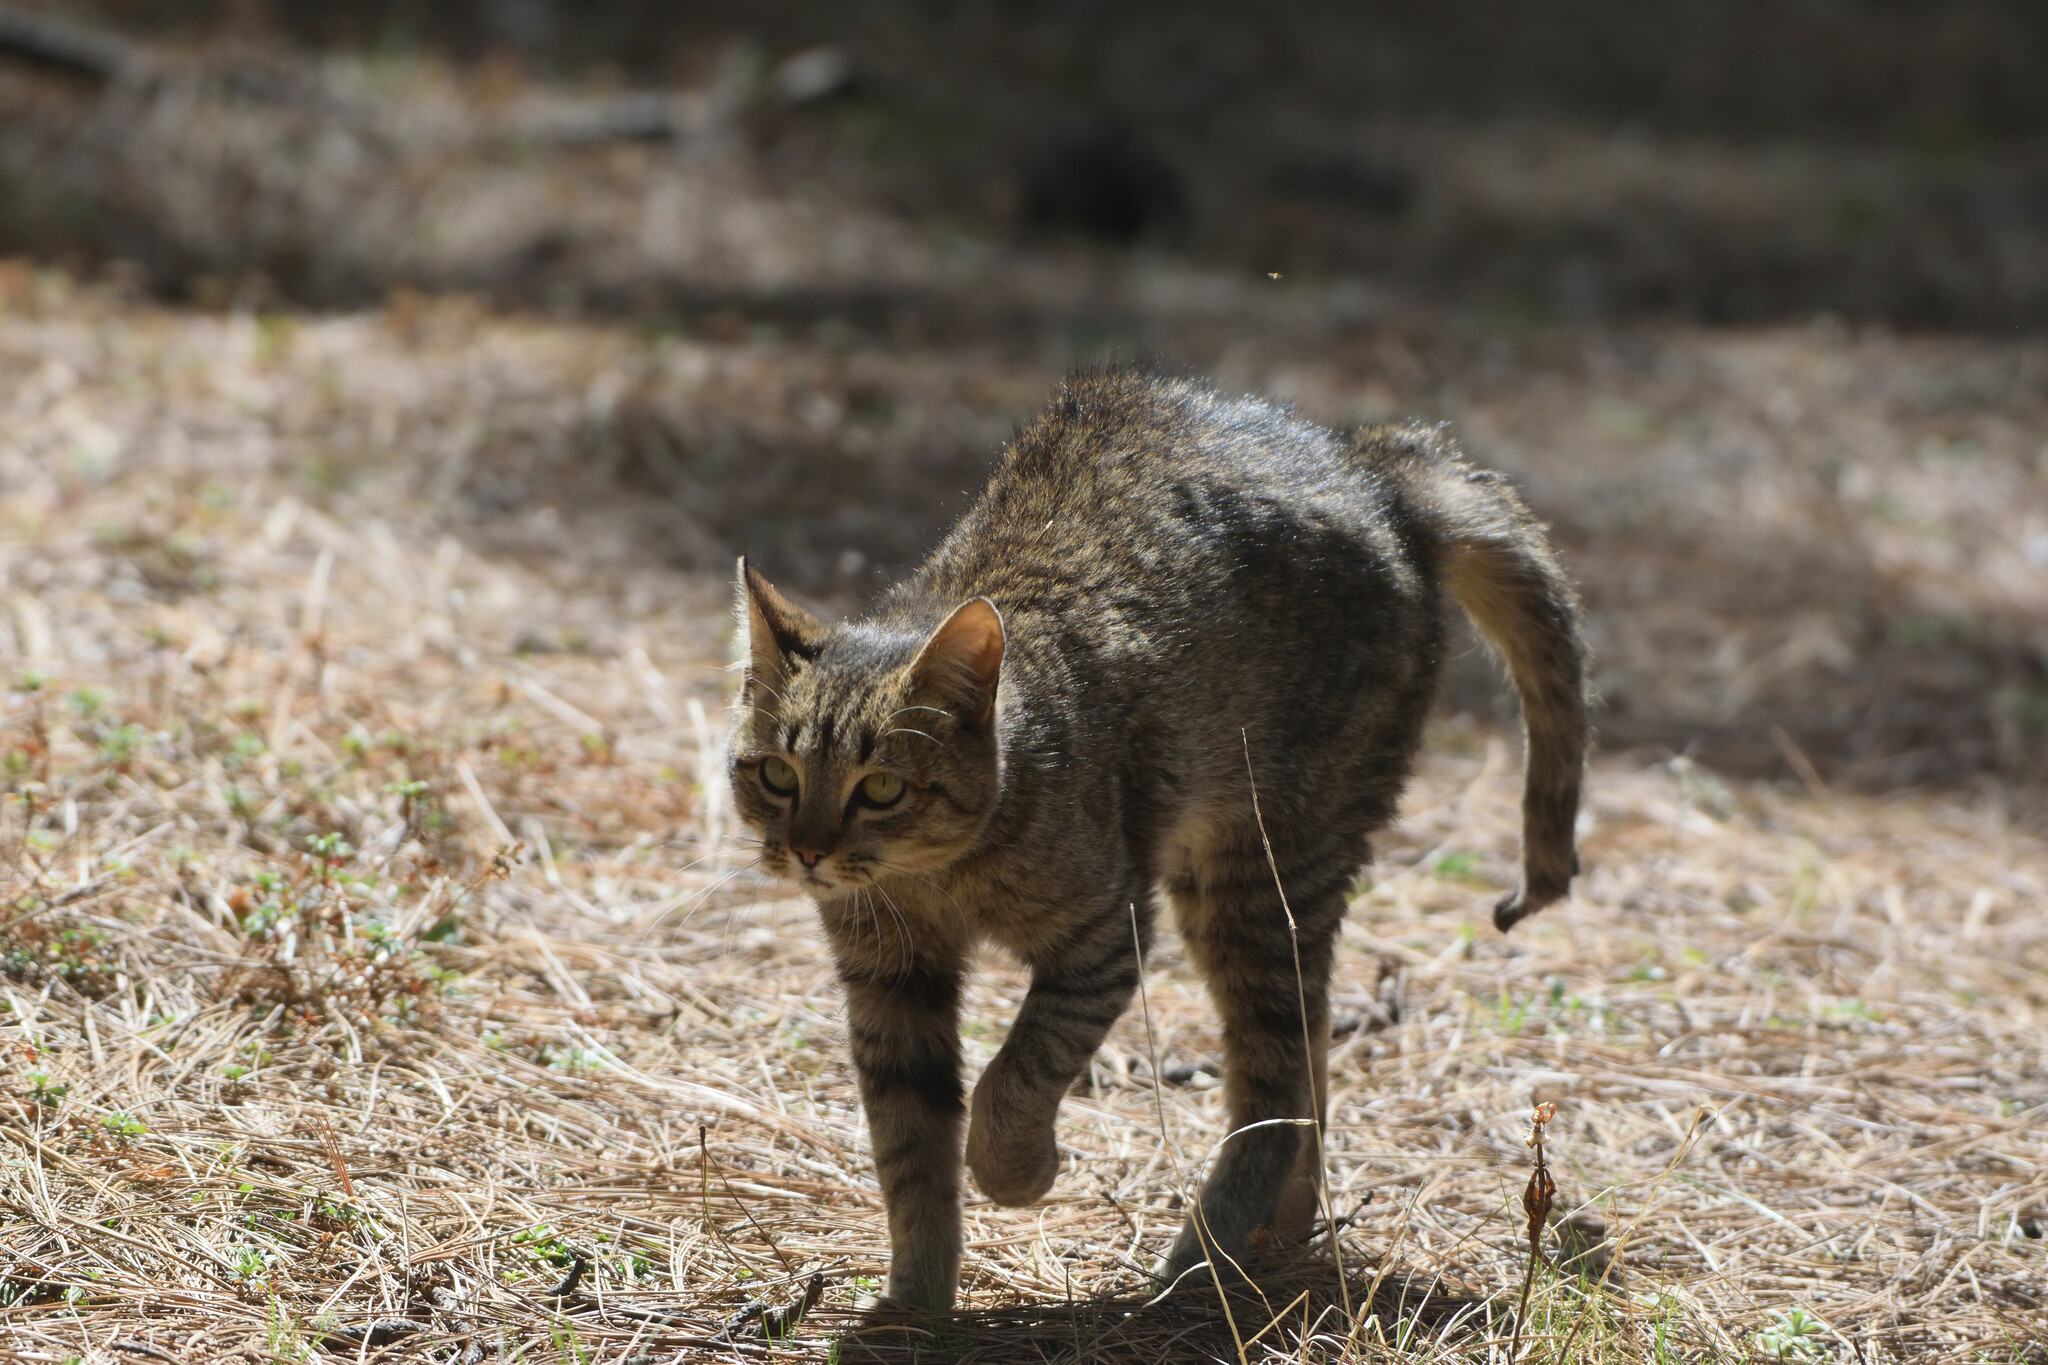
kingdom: Animalia
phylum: Chordata
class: Mammalia
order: Carnivora
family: Felidae
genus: Felis
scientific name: Felis catus
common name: Domestic cat
